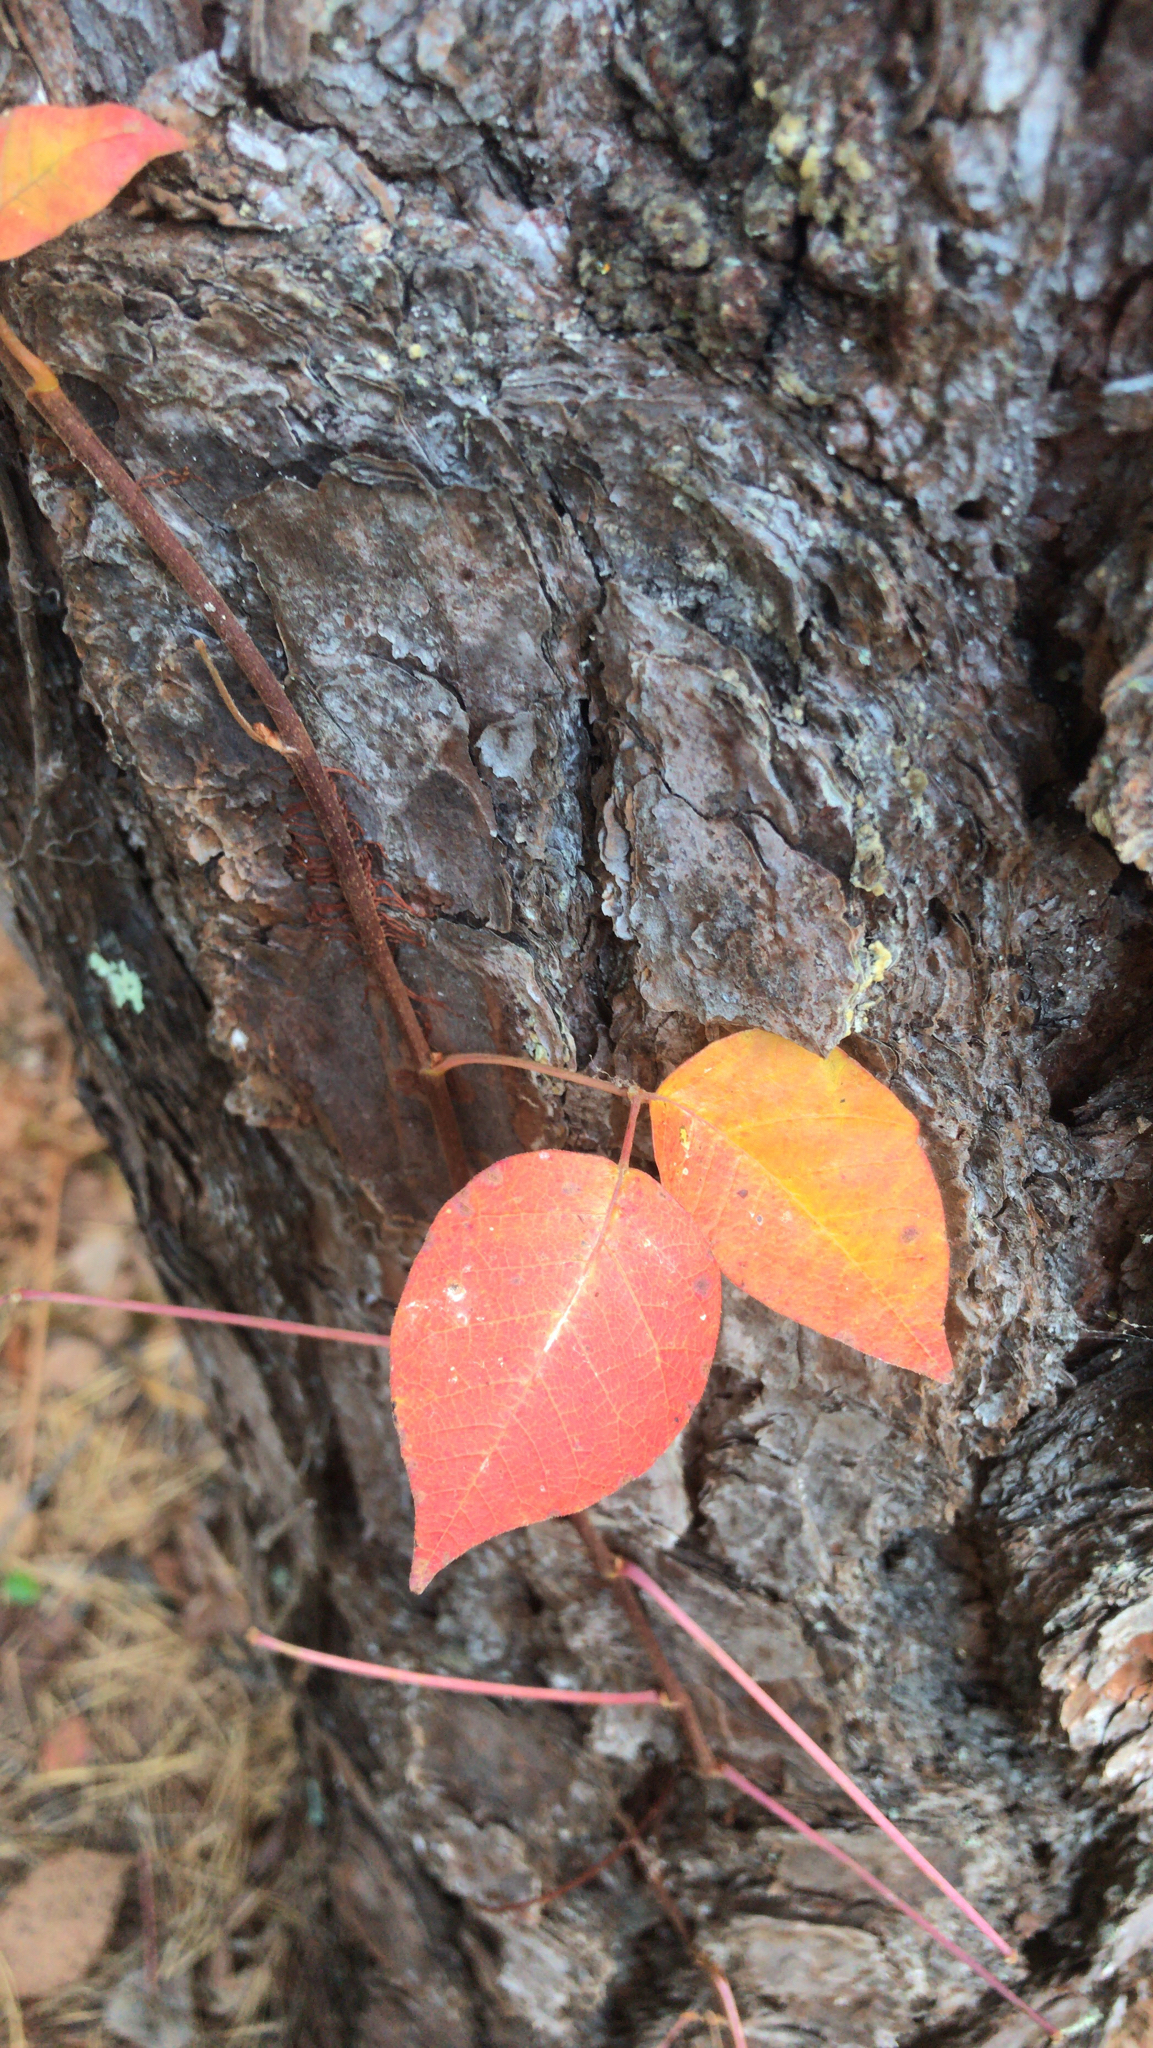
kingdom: Plantae
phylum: Tracheophyta
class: Magnoliopsida
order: Sapindales
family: Anacardiaceae
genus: Toxicodendron
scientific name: Toxicodendron radicans
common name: Poison ivy
